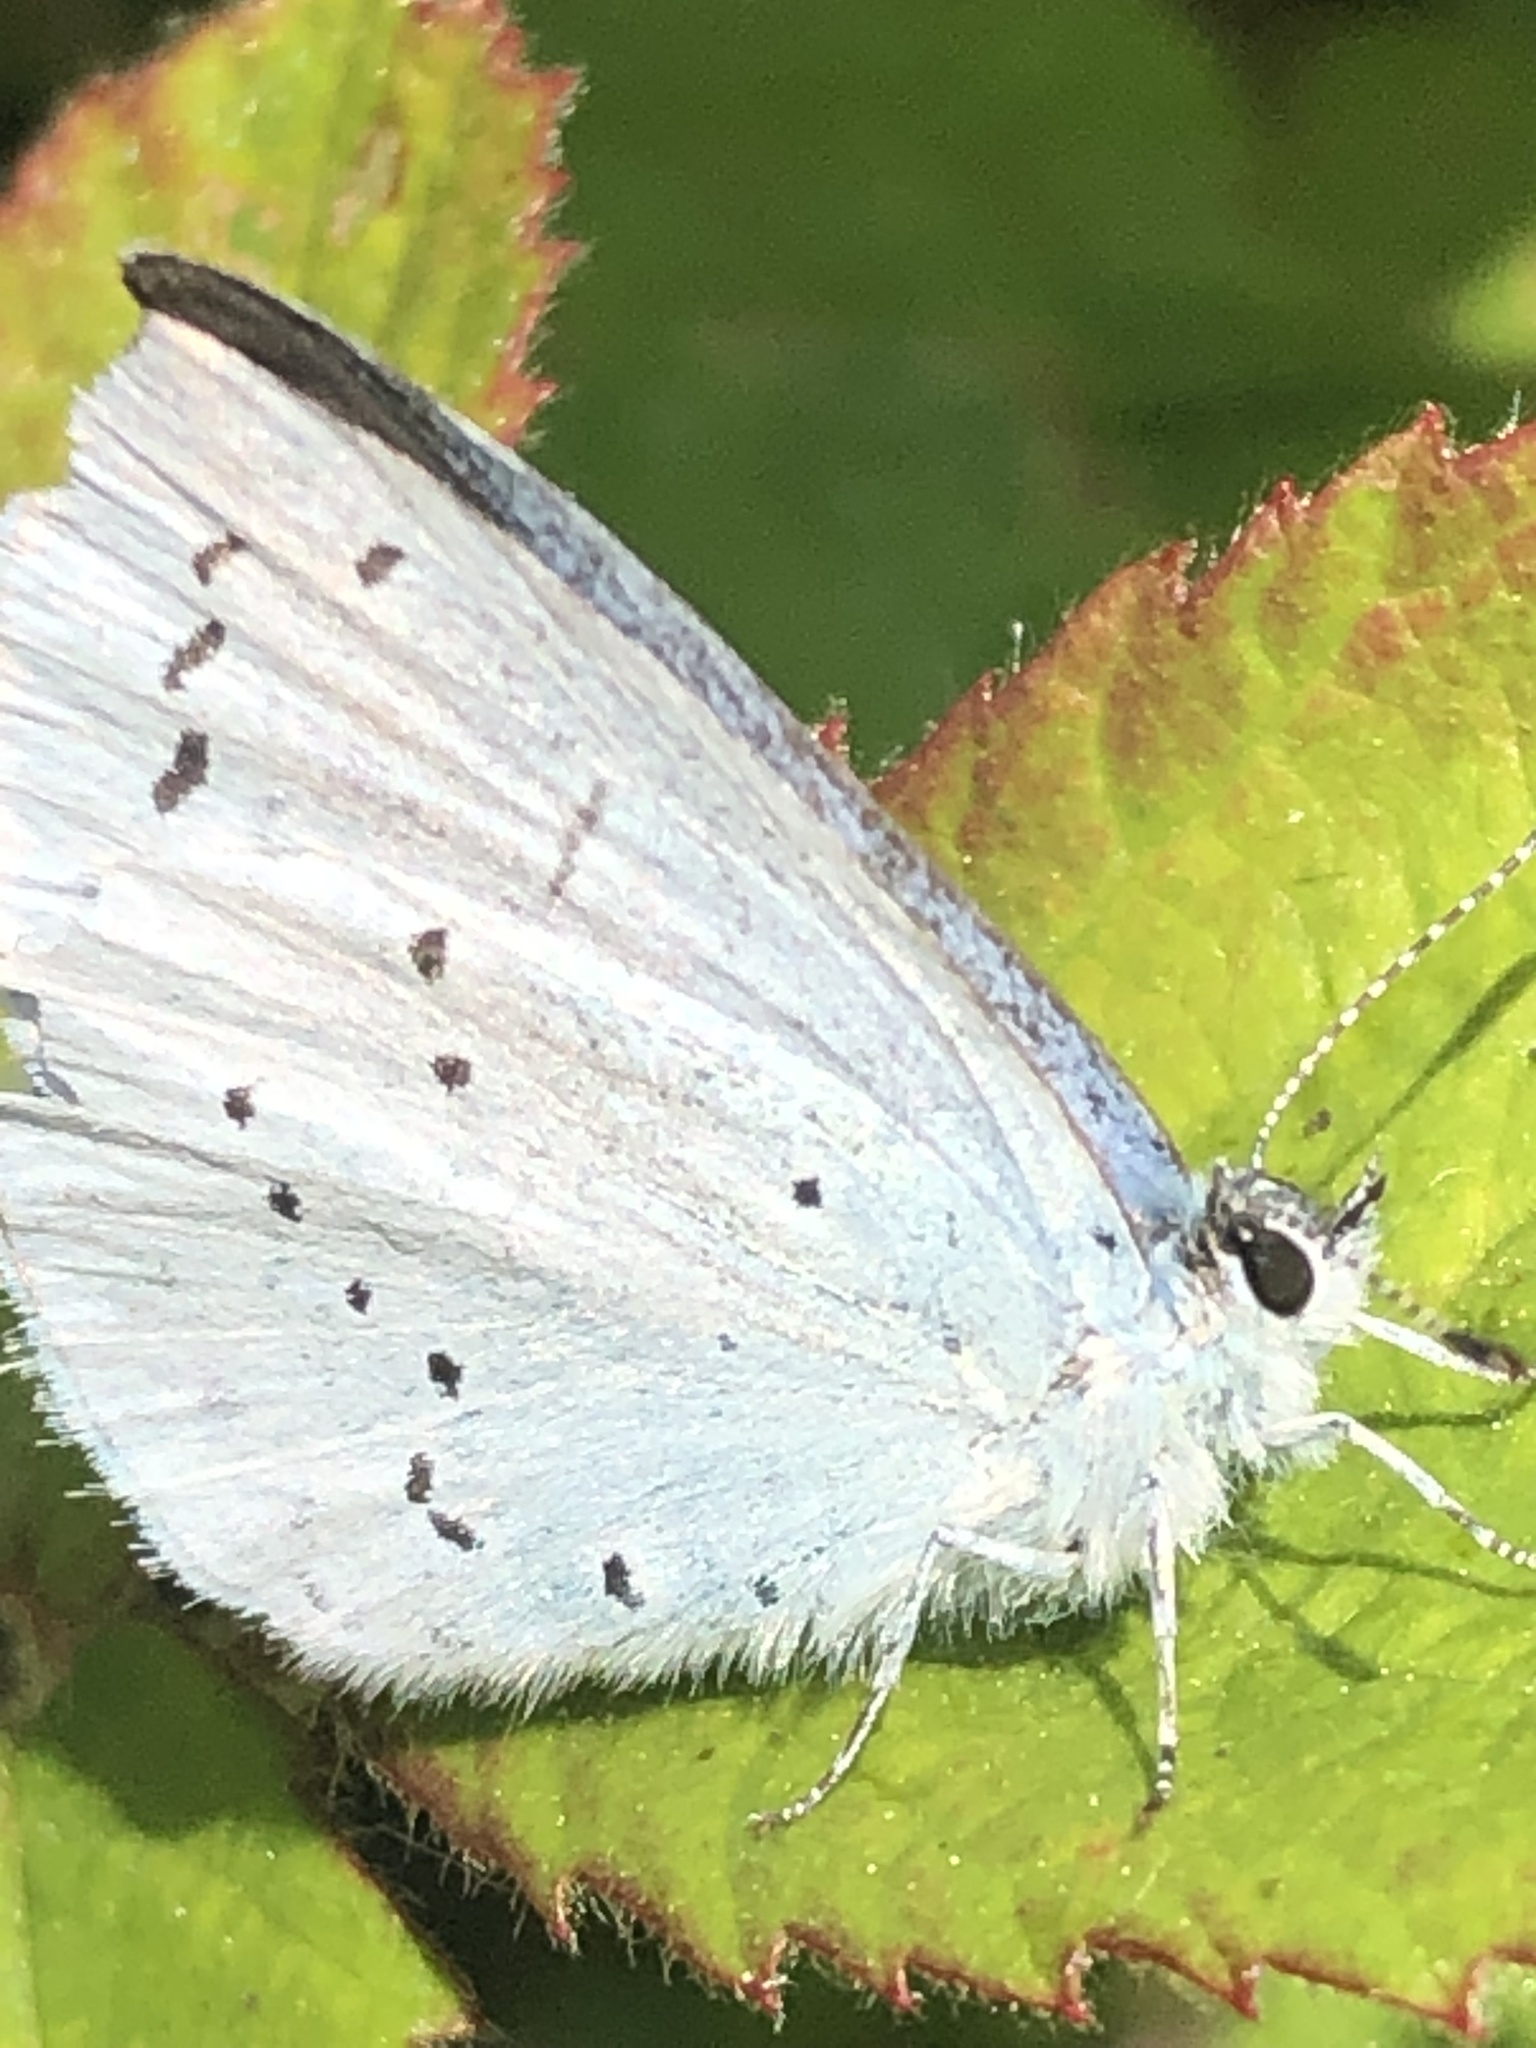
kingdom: Animalia
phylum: Arthropoda
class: Insecta
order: Lepidoptera
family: Lycaenidae
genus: Celastrina
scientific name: Celastrina argiolus
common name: Holly blue
